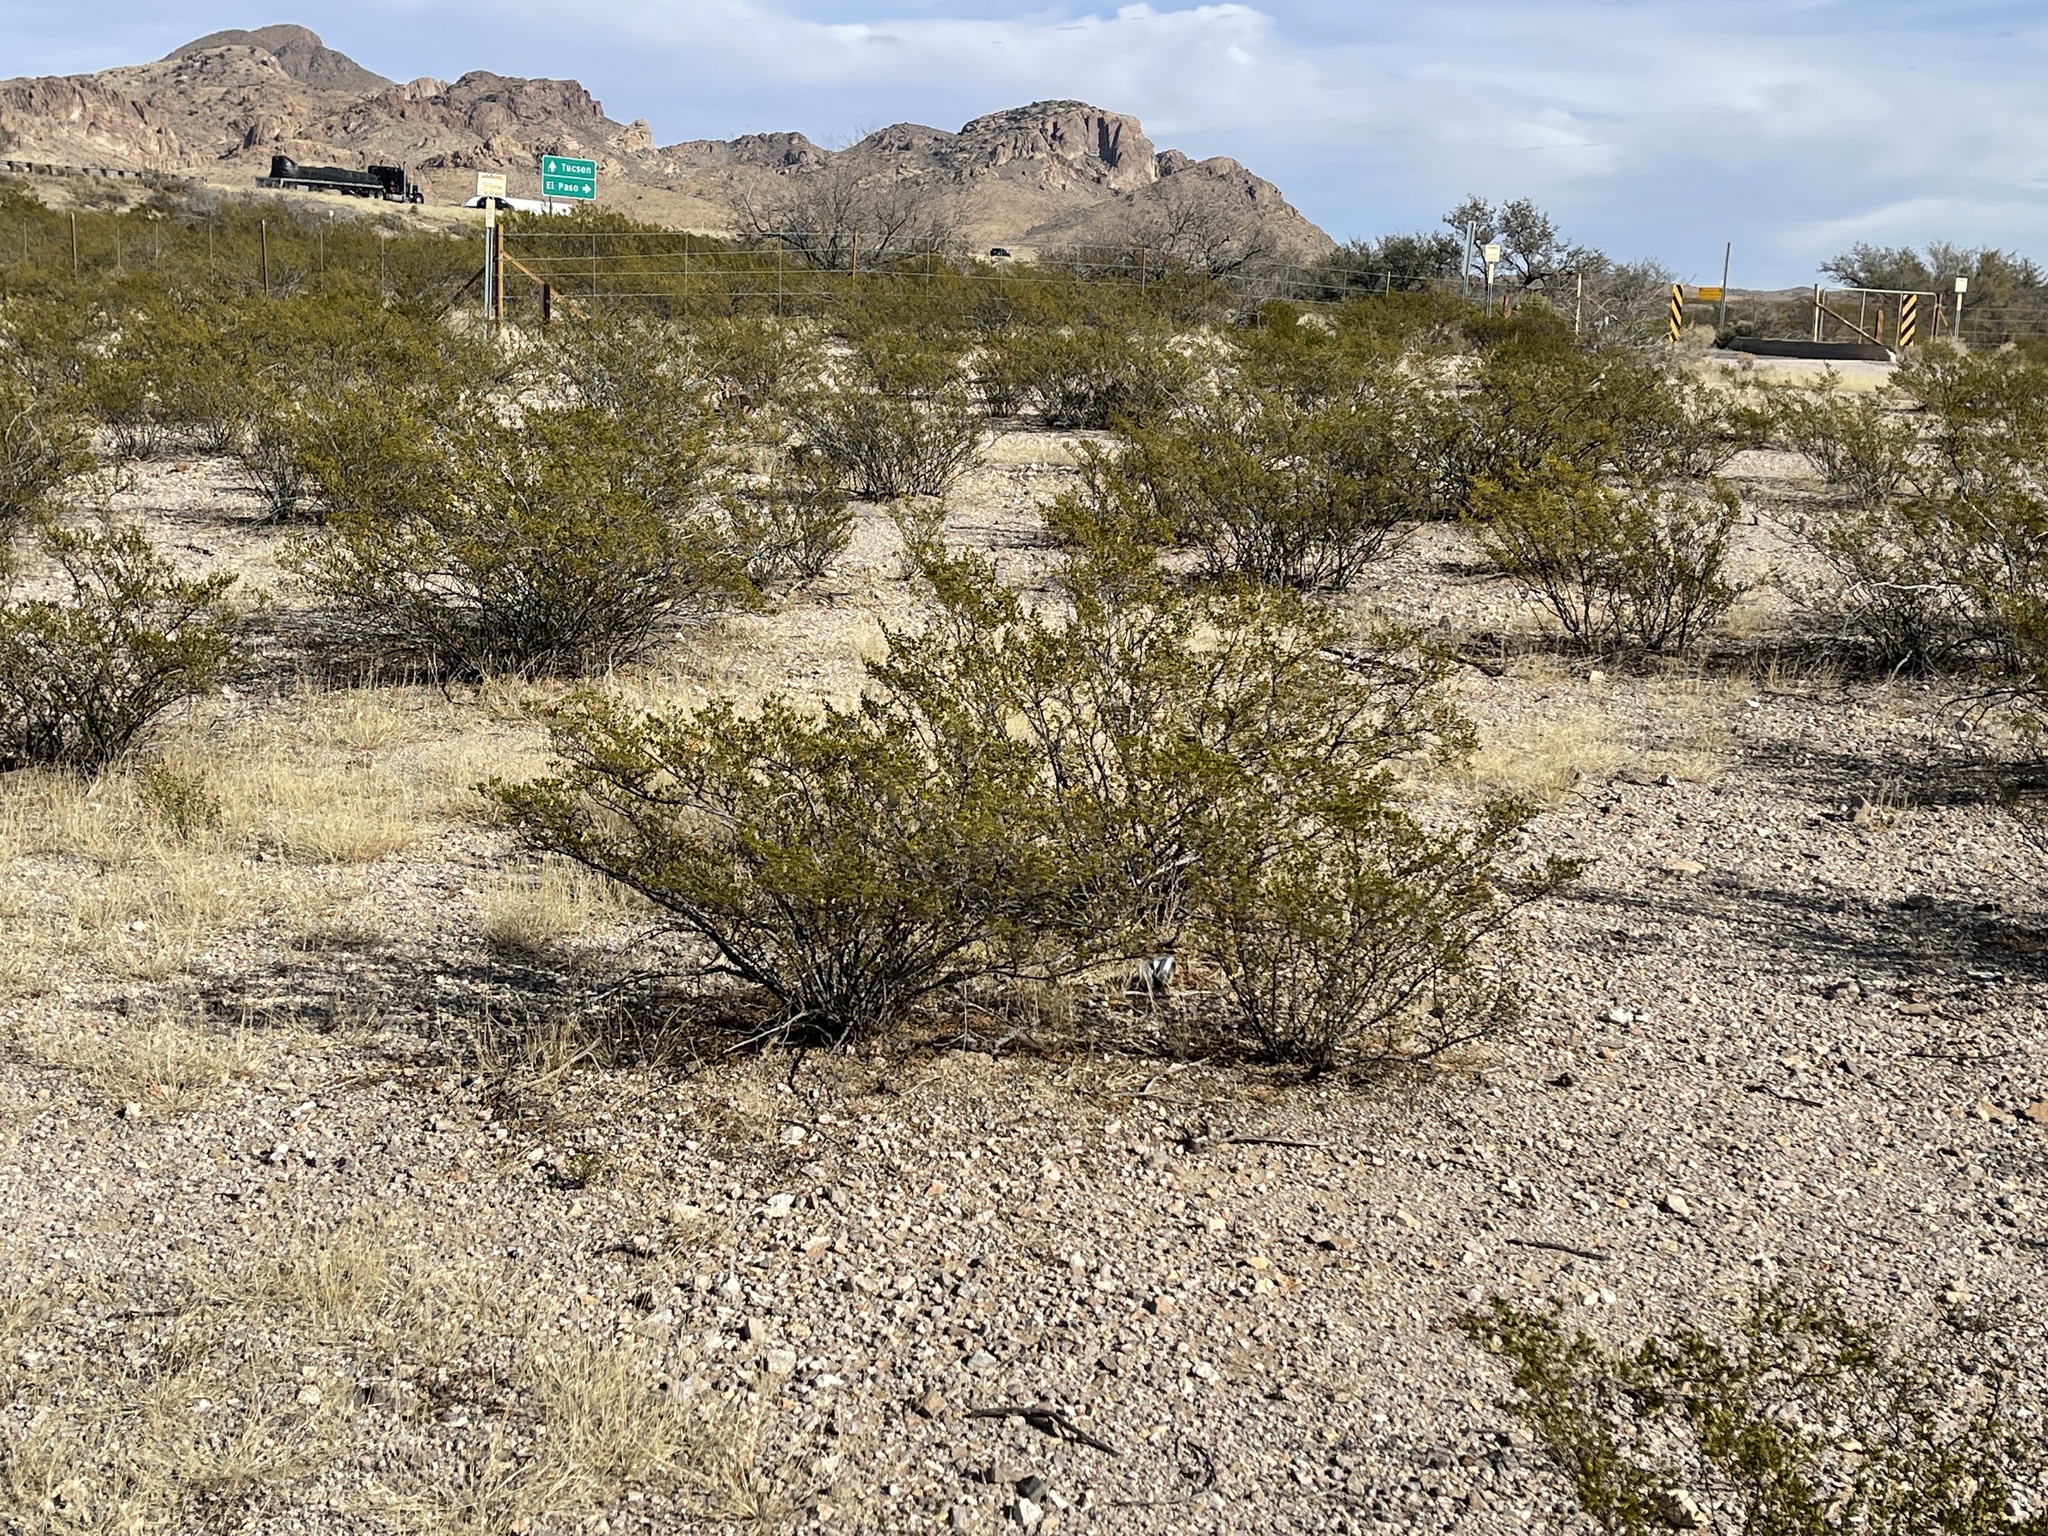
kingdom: Plantae
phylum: Tracheophyta
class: Magnoliopsida
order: Zygophyllales
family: Zygophyllaceae
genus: Larrea
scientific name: Larrea tridentata
